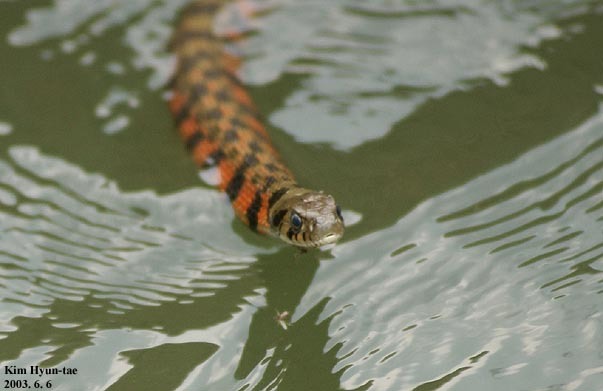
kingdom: Animalia
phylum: Chordata
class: Squamata
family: Colubridae
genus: Rhabdophis
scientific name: Rhabdophis tigrinus
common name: Tiger keelback
